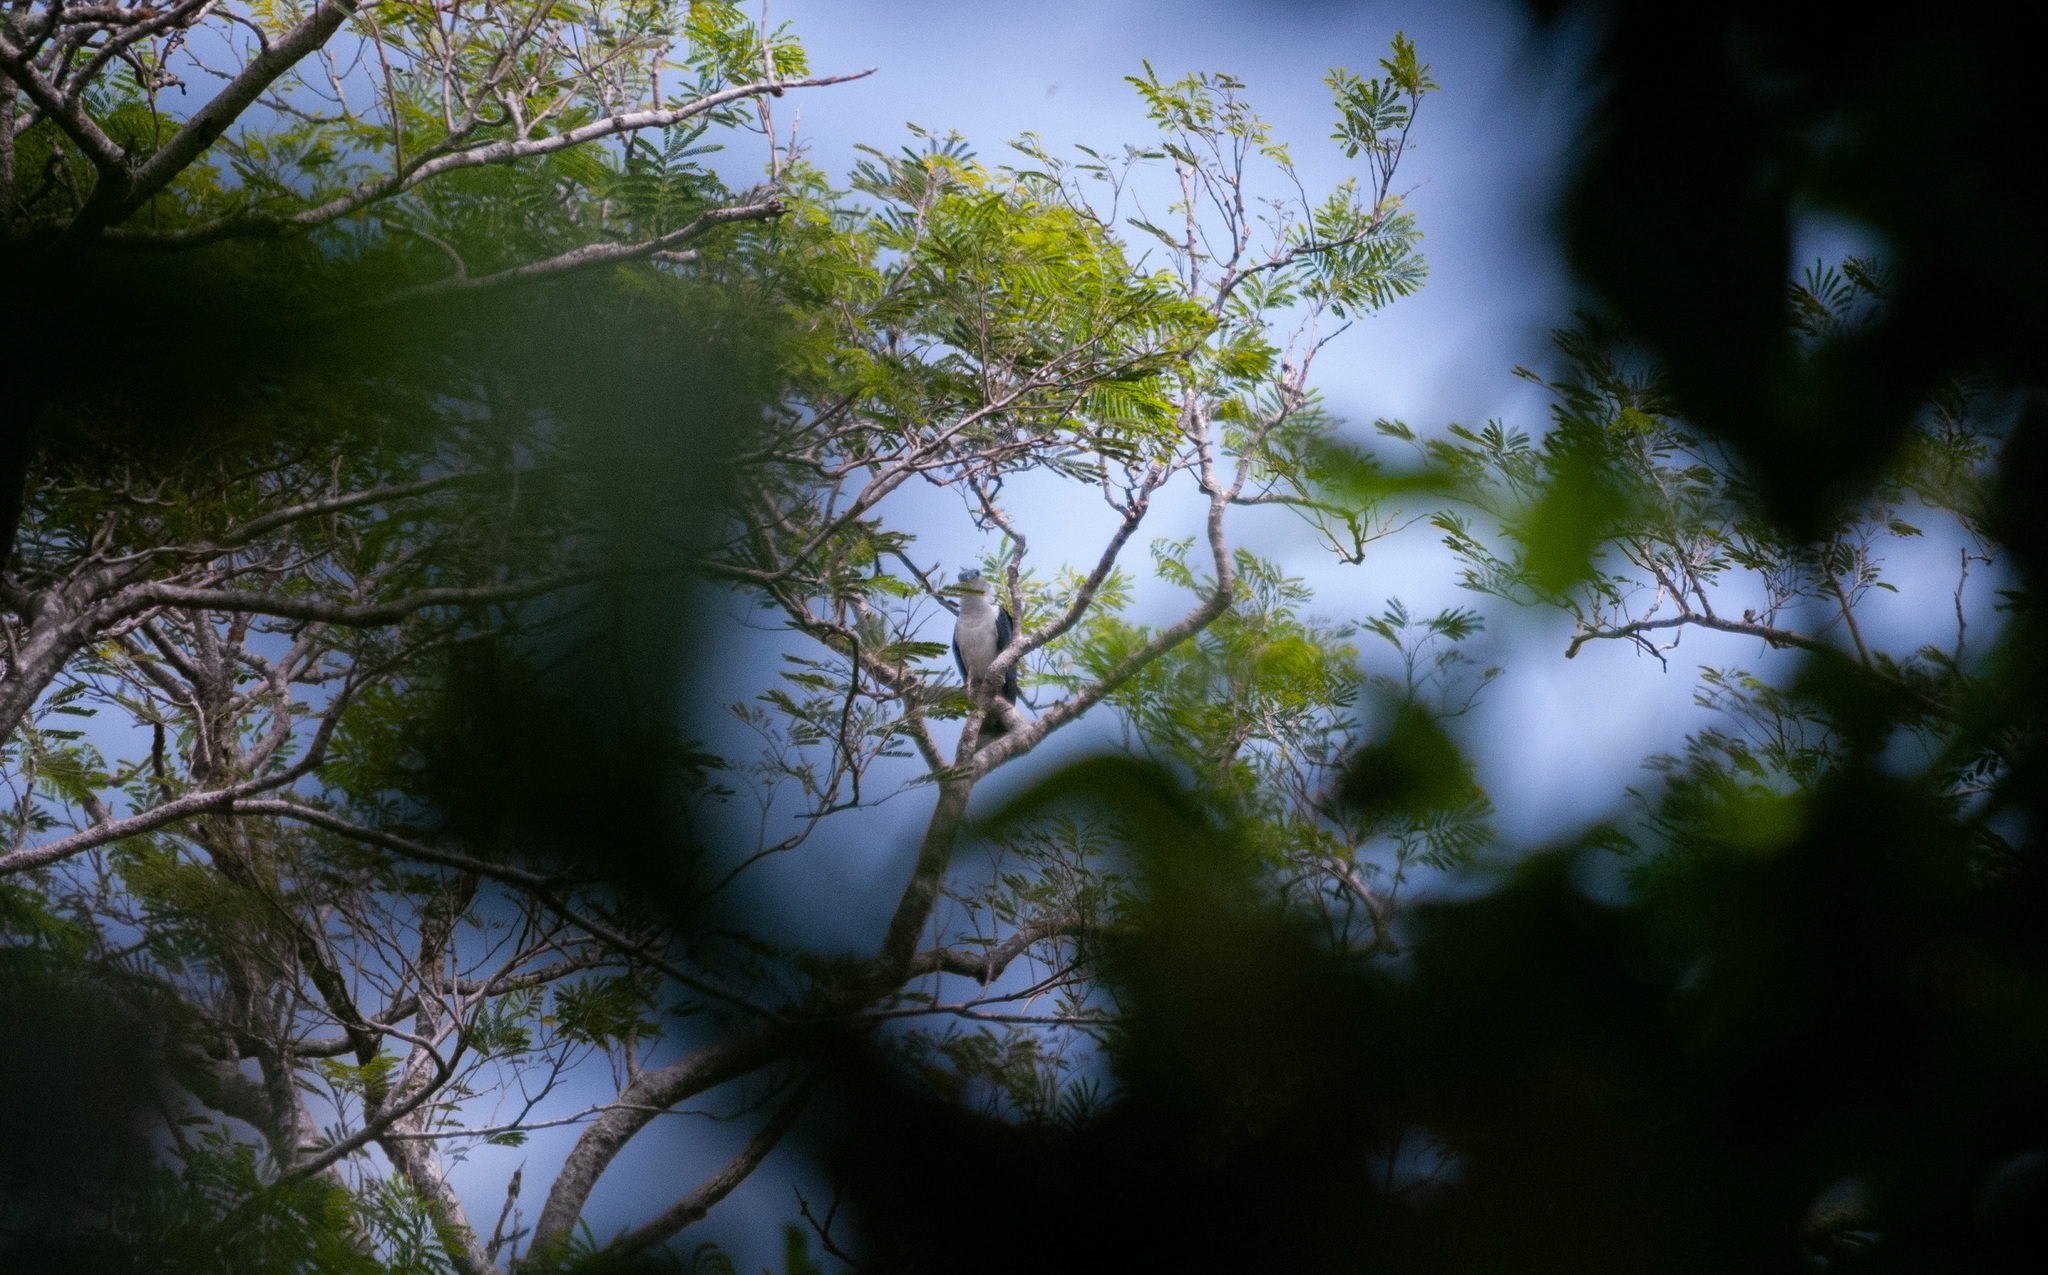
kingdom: Animalia
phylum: Chordata
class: Aves
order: Accipitriformes
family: Accipitridae
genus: Leptodon
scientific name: Leptodon cayanensis
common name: Gray-headed kite
